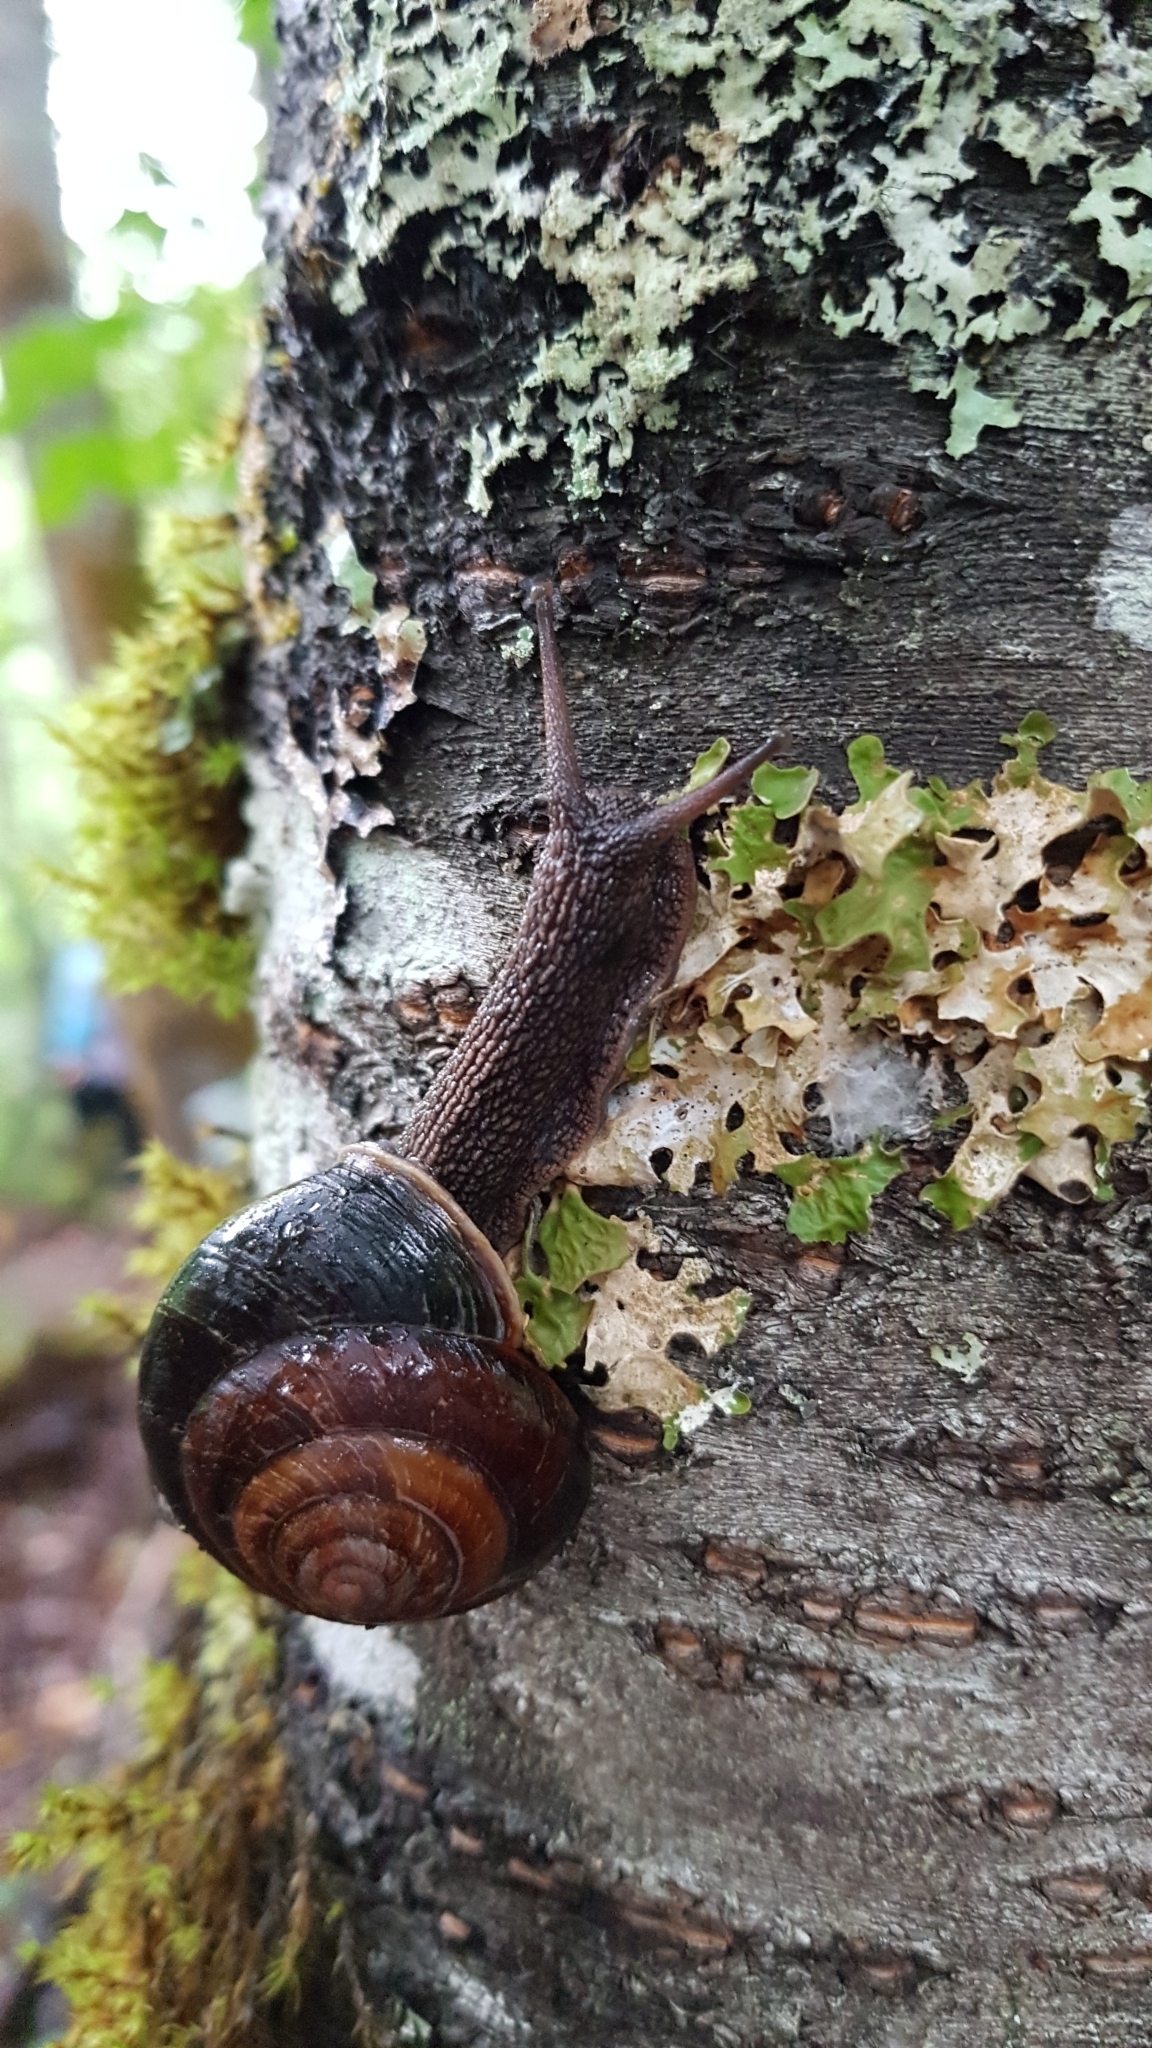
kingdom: Animalia
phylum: Mollusca
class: Gastropoda
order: Stylommatophora
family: Xanthonychidae
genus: Monadenia
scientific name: Monadenia fidelis
